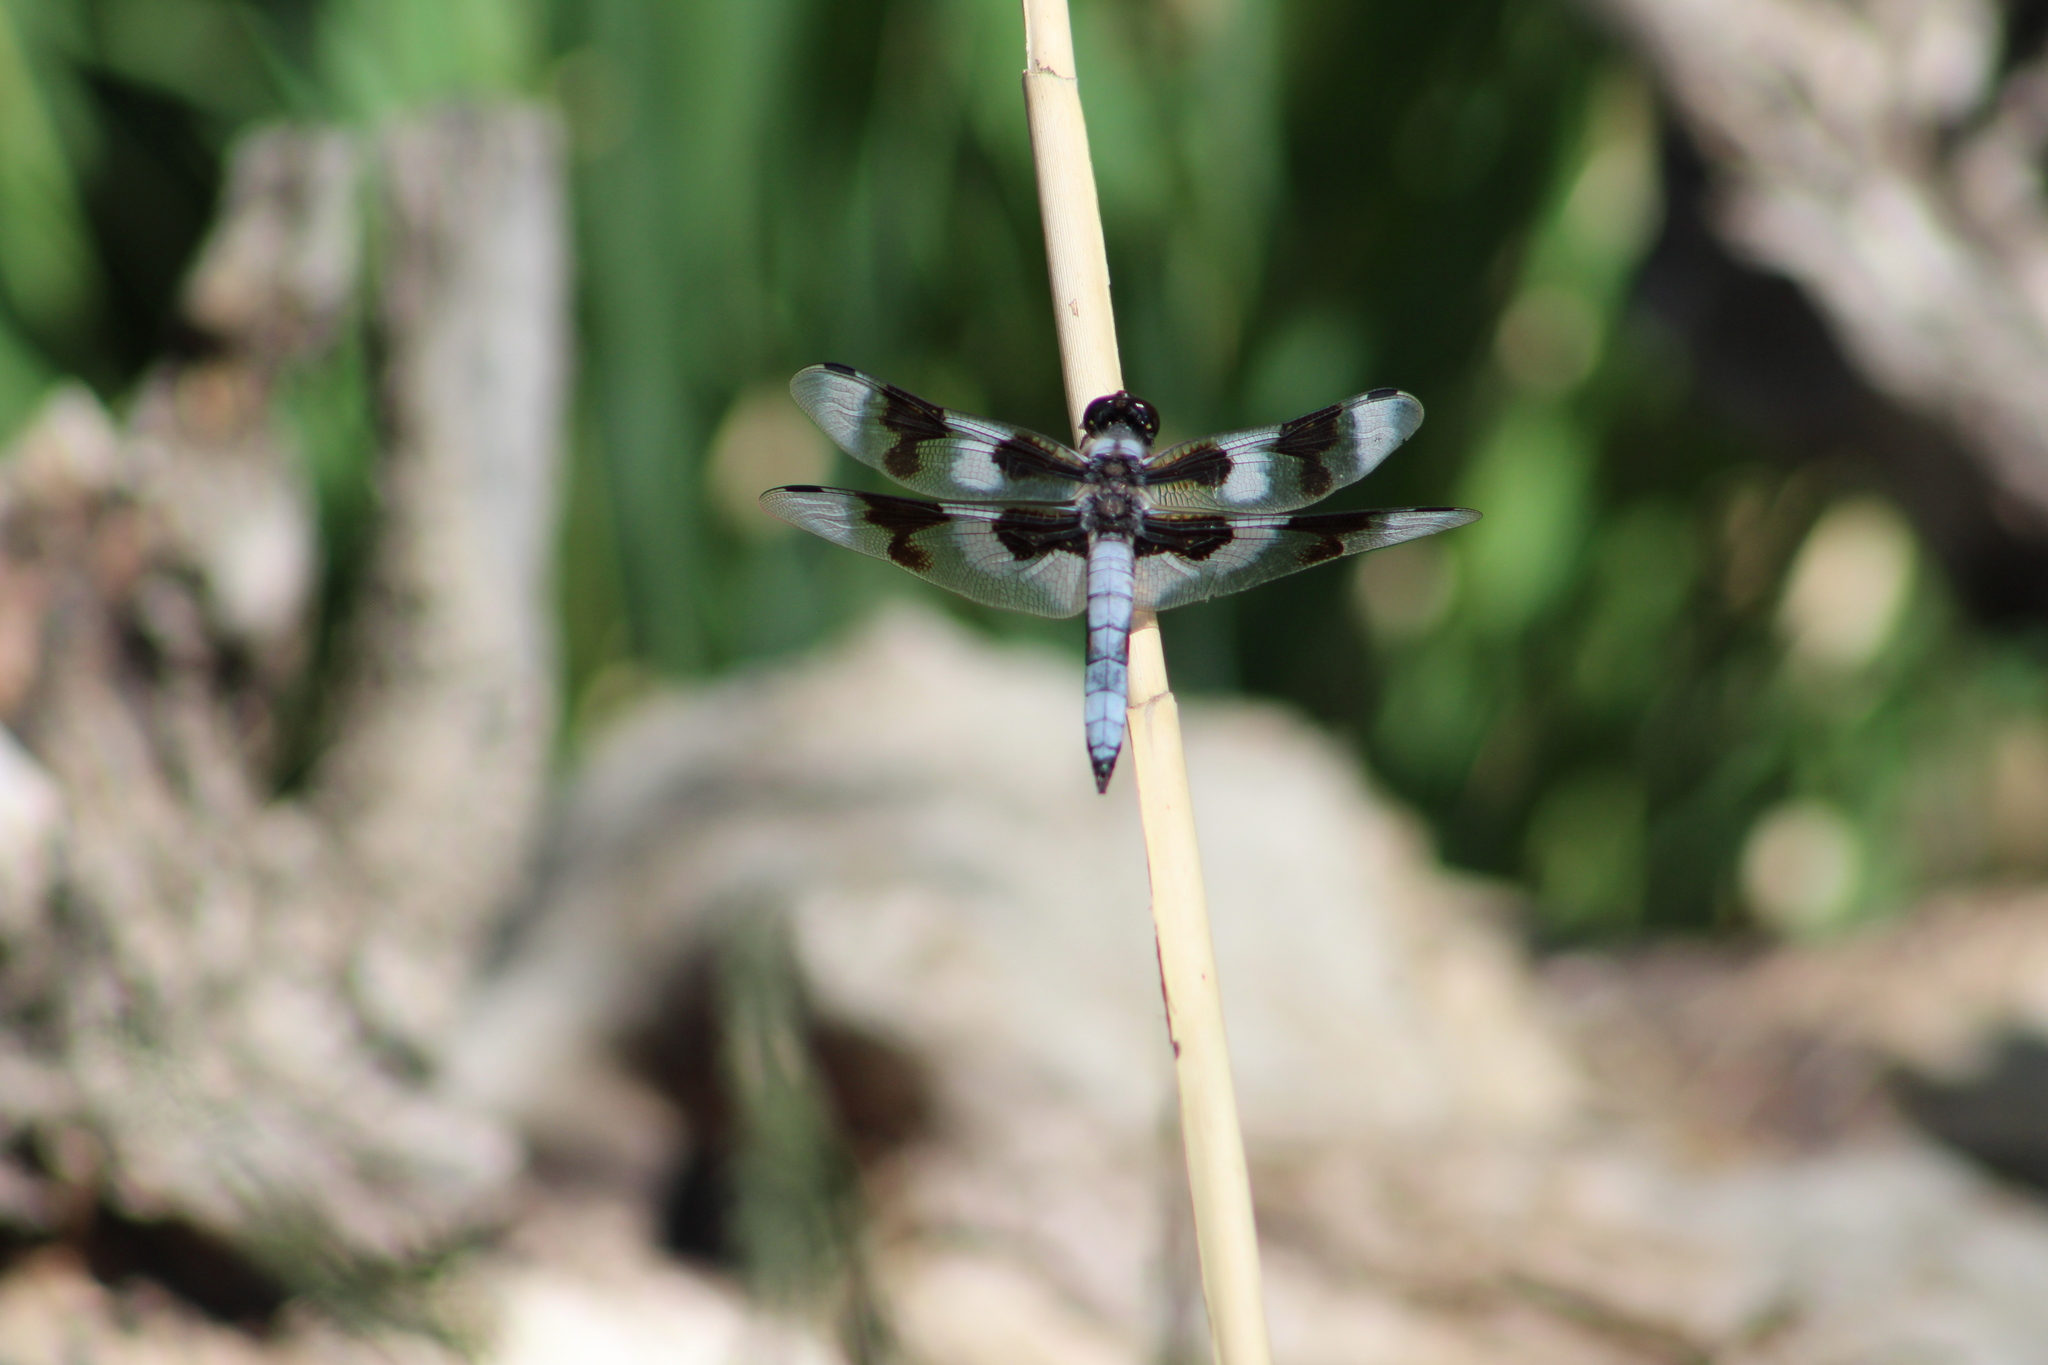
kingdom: Animalia
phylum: Arthropoda
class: Insecta
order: Odonata
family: Libellulidae
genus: Libellula
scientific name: Libellula forensis
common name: Eight-spotted skimmer
